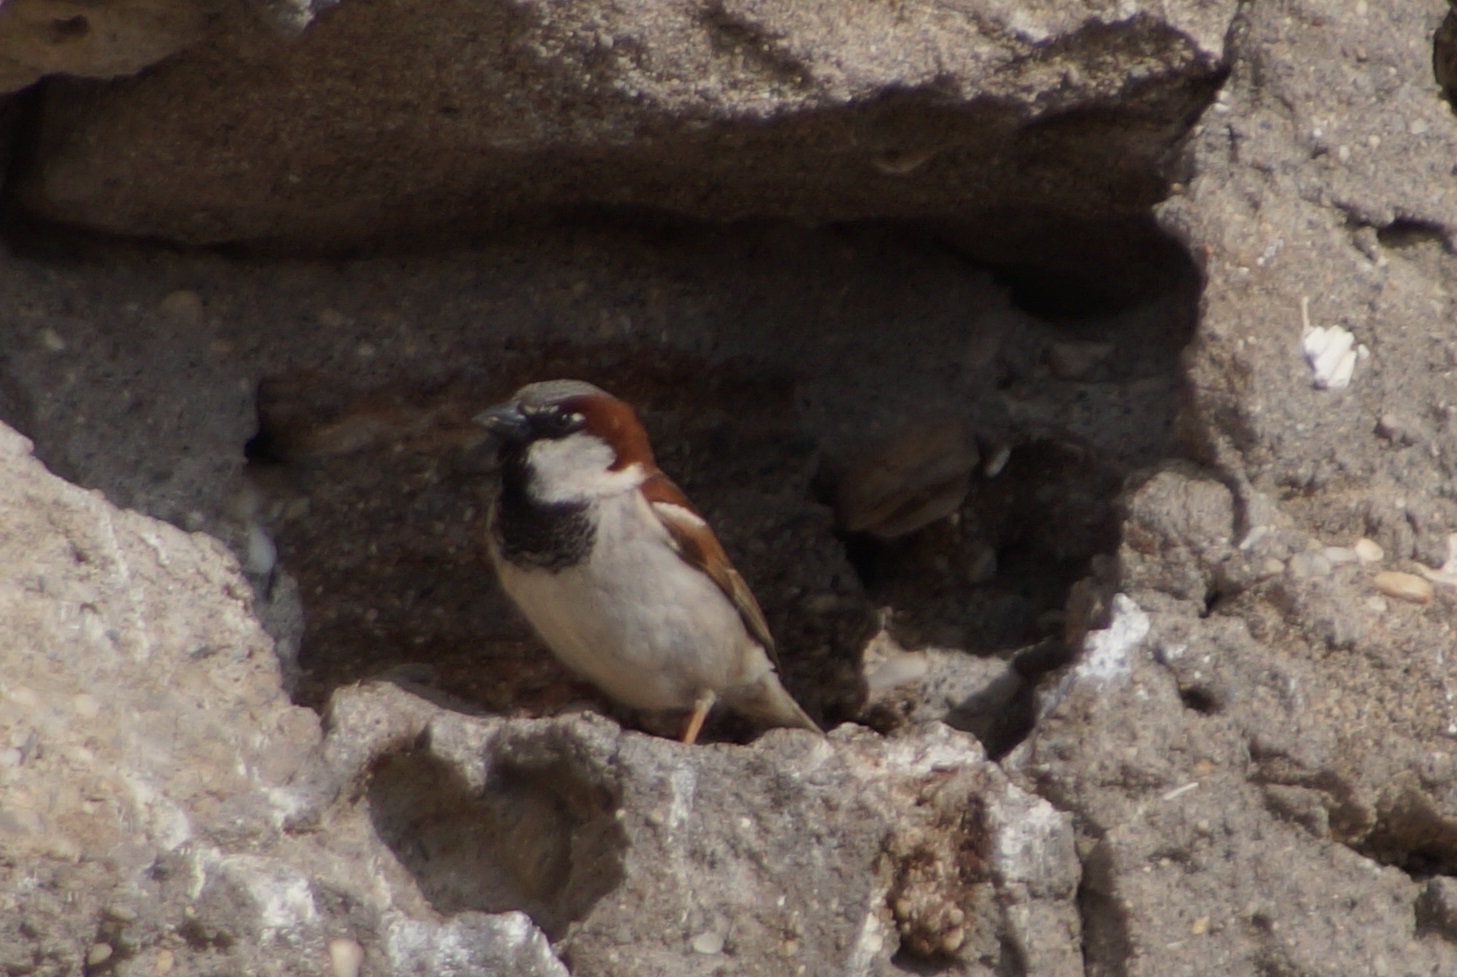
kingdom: Animalia
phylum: Chordata
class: Aves
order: Passeriformes
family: Passeridae
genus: Passer
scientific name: Passer domesticus
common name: House sparrow
